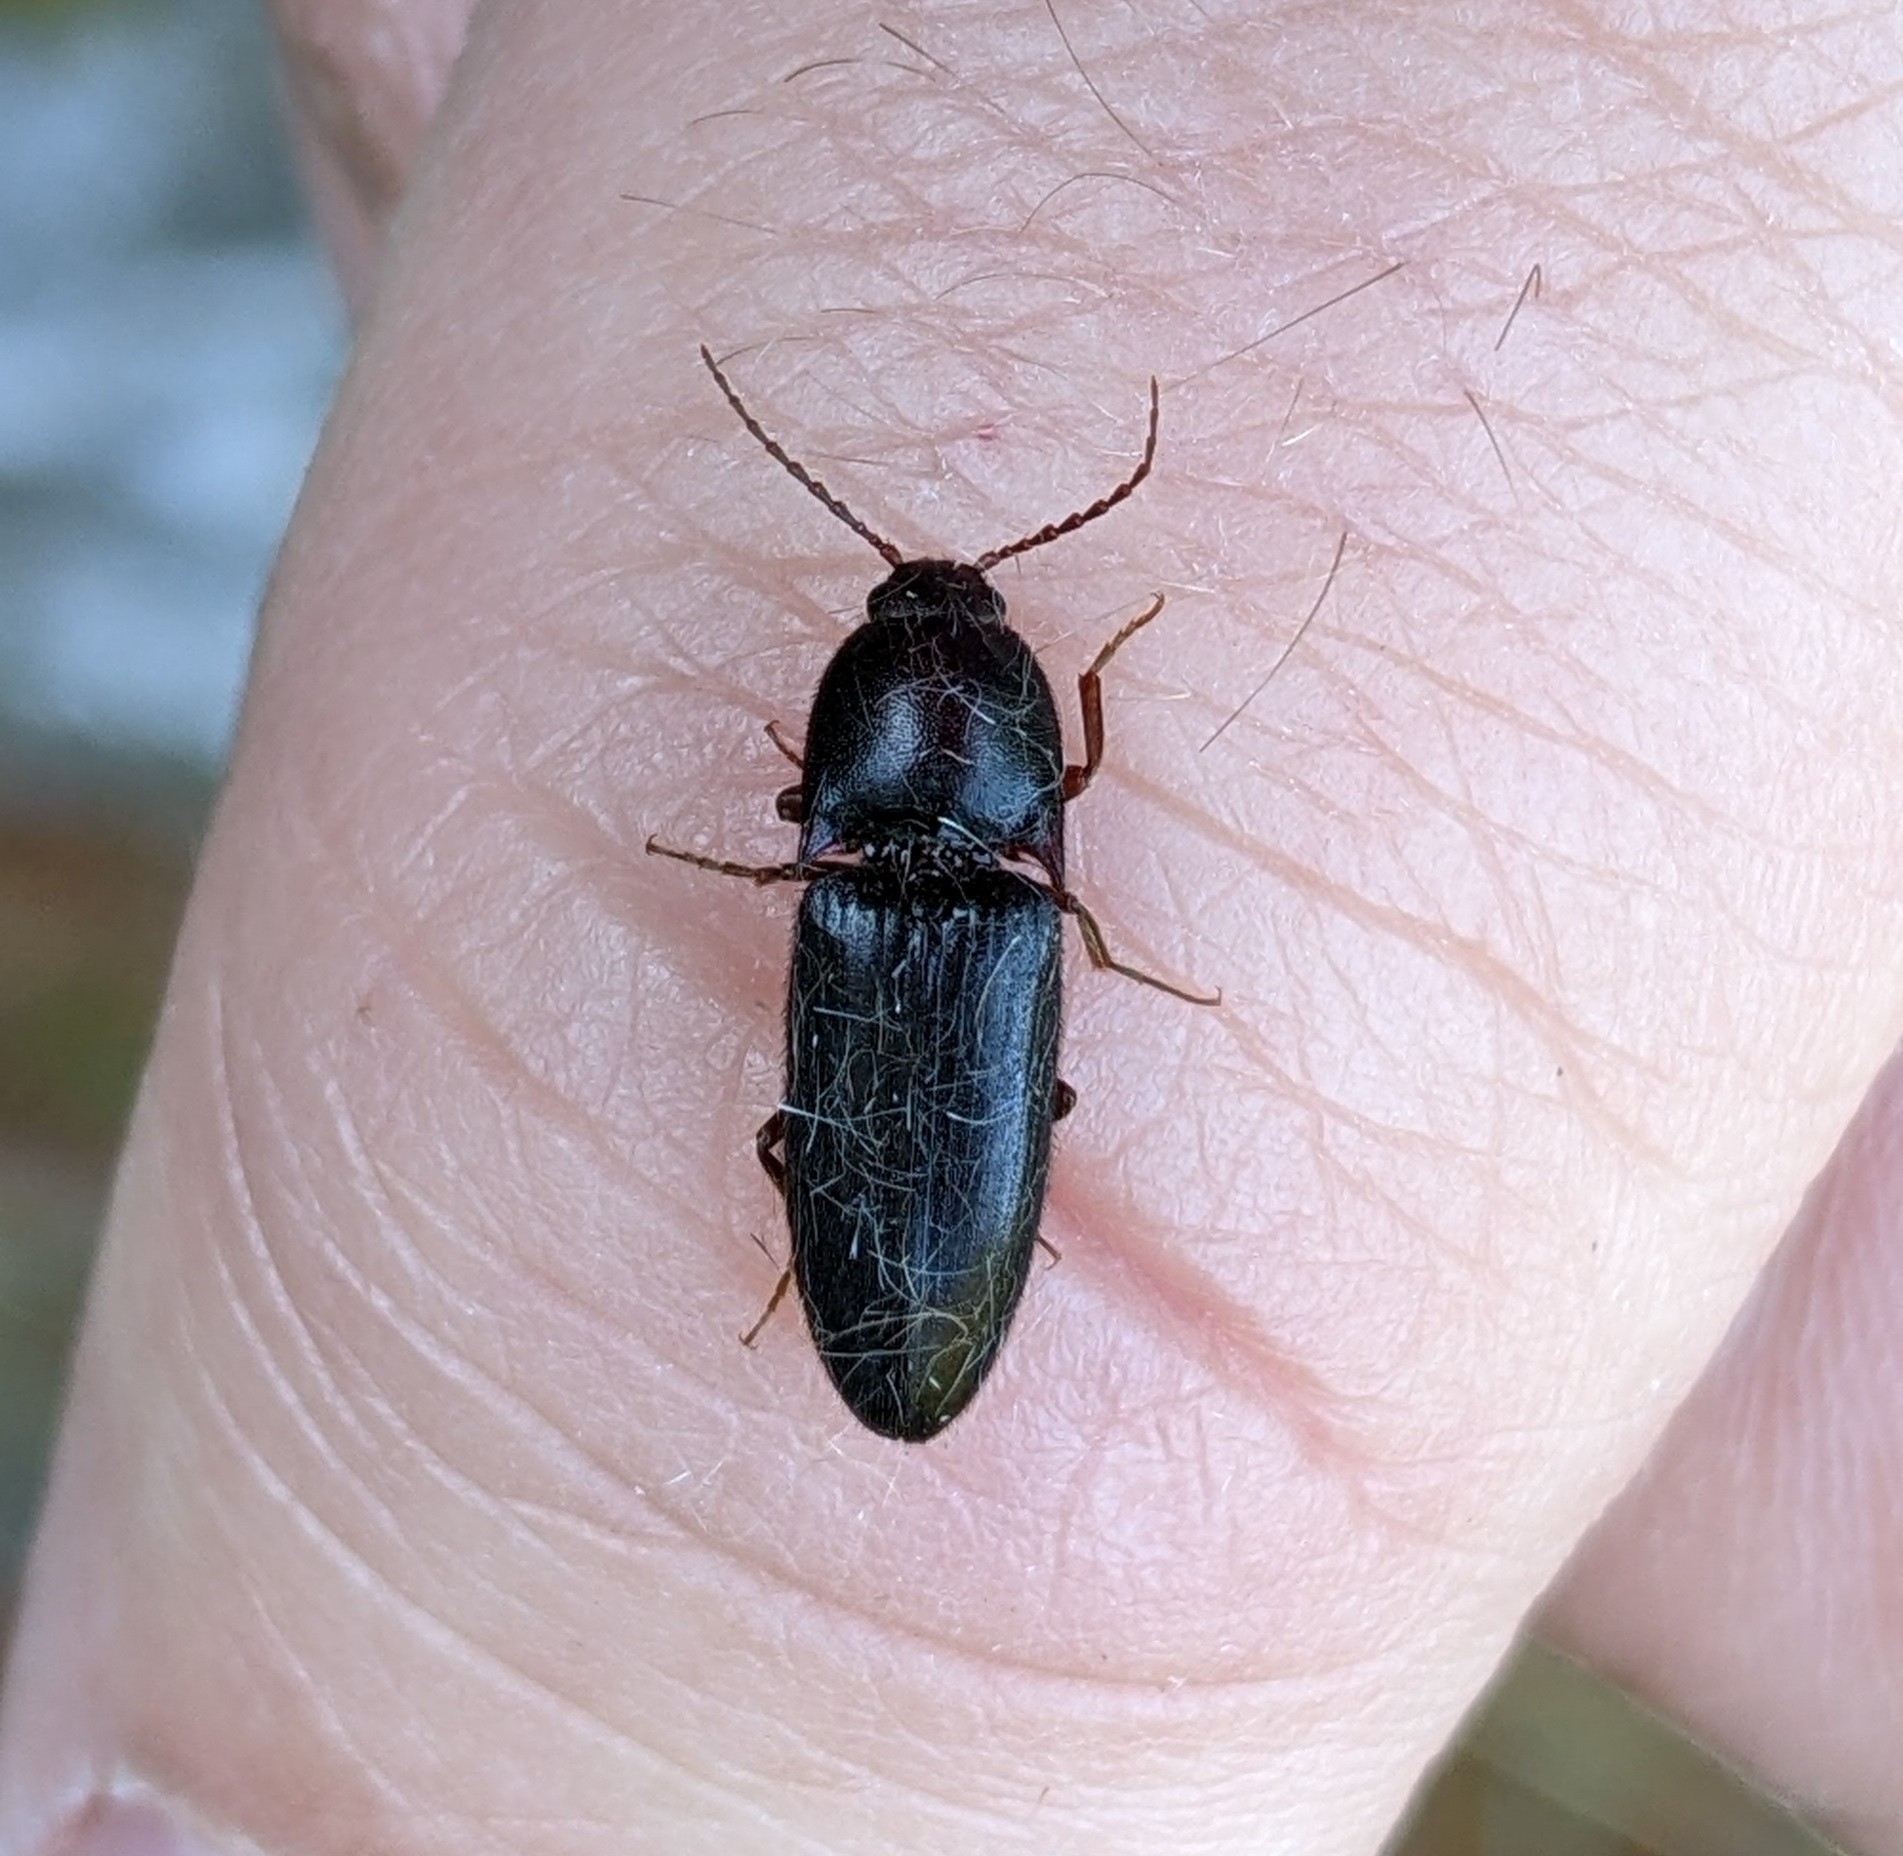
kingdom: Animalia
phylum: Arthropoda
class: Insecta
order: Coleoptera
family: Elateridae
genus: Ampedus
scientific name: Ampedus rhodopus
